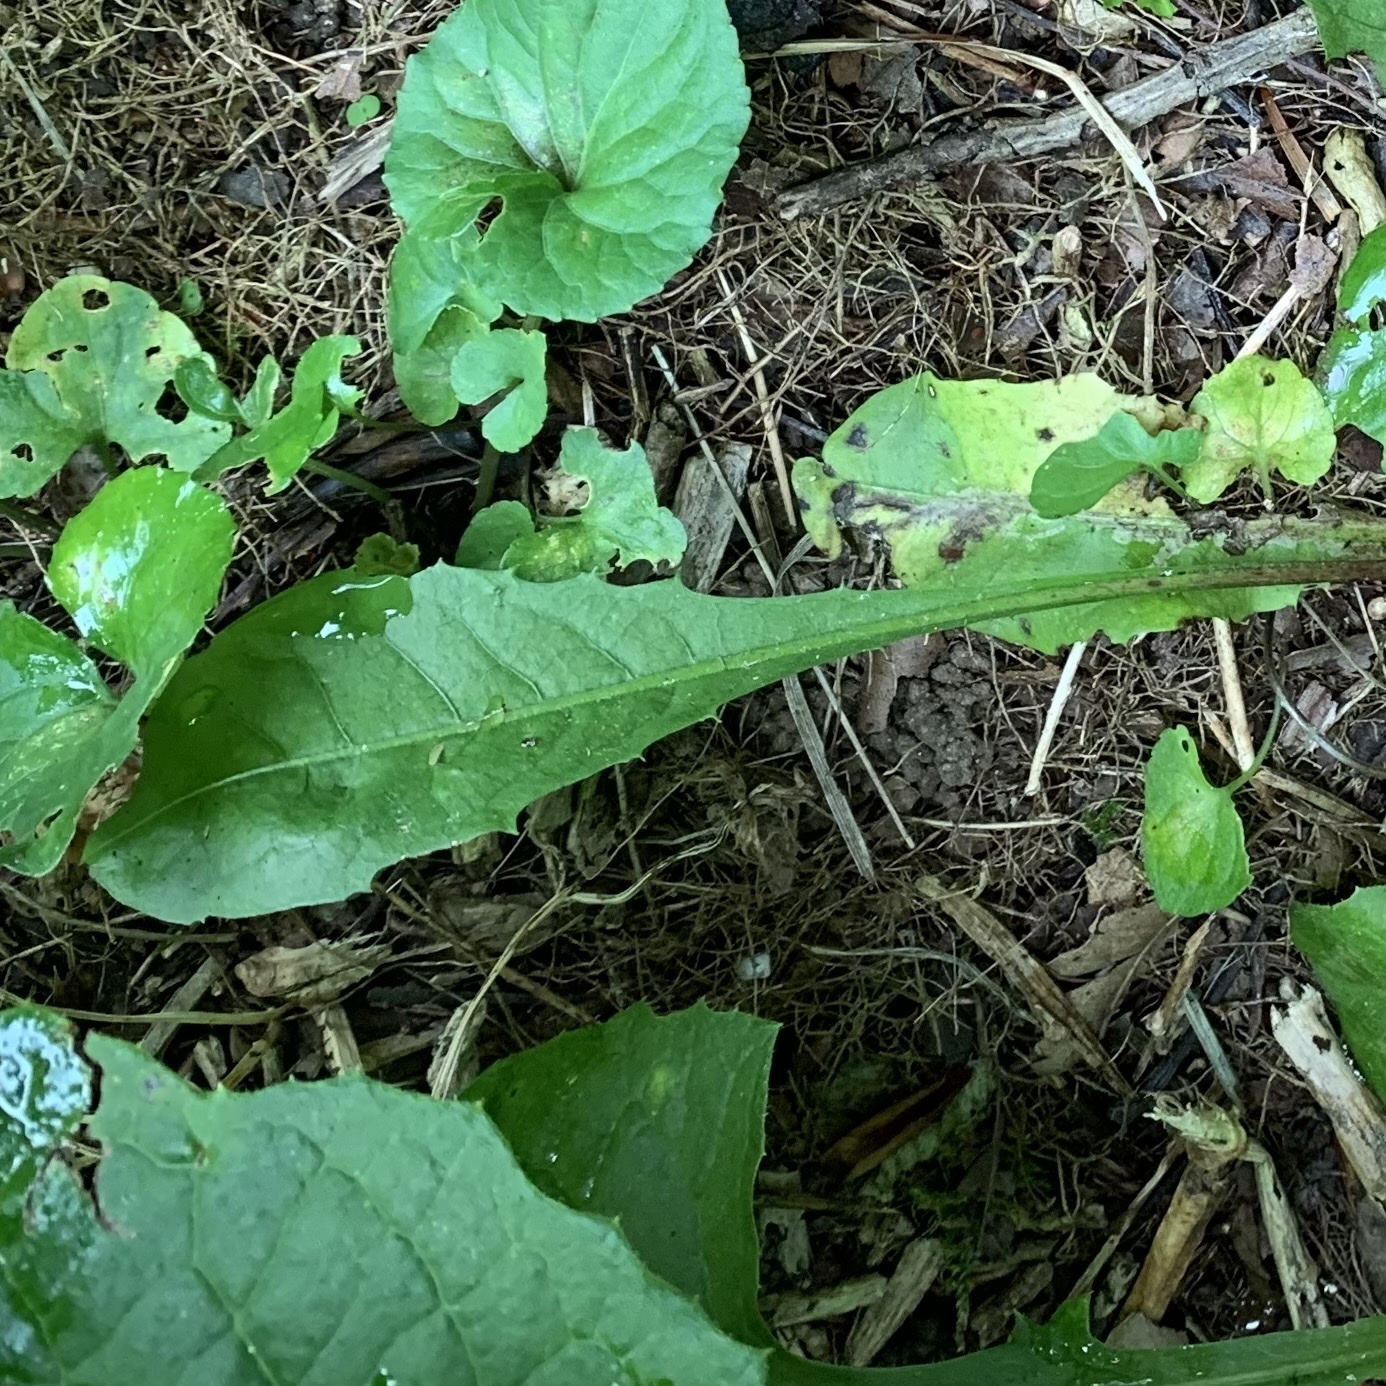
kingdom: Plantae
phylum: Tracheophyta
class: Magnoliopsida
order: Asterales
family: Asteraceae
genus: Taraxacum
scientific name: Taraxacum officinale
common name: Common dandelion
